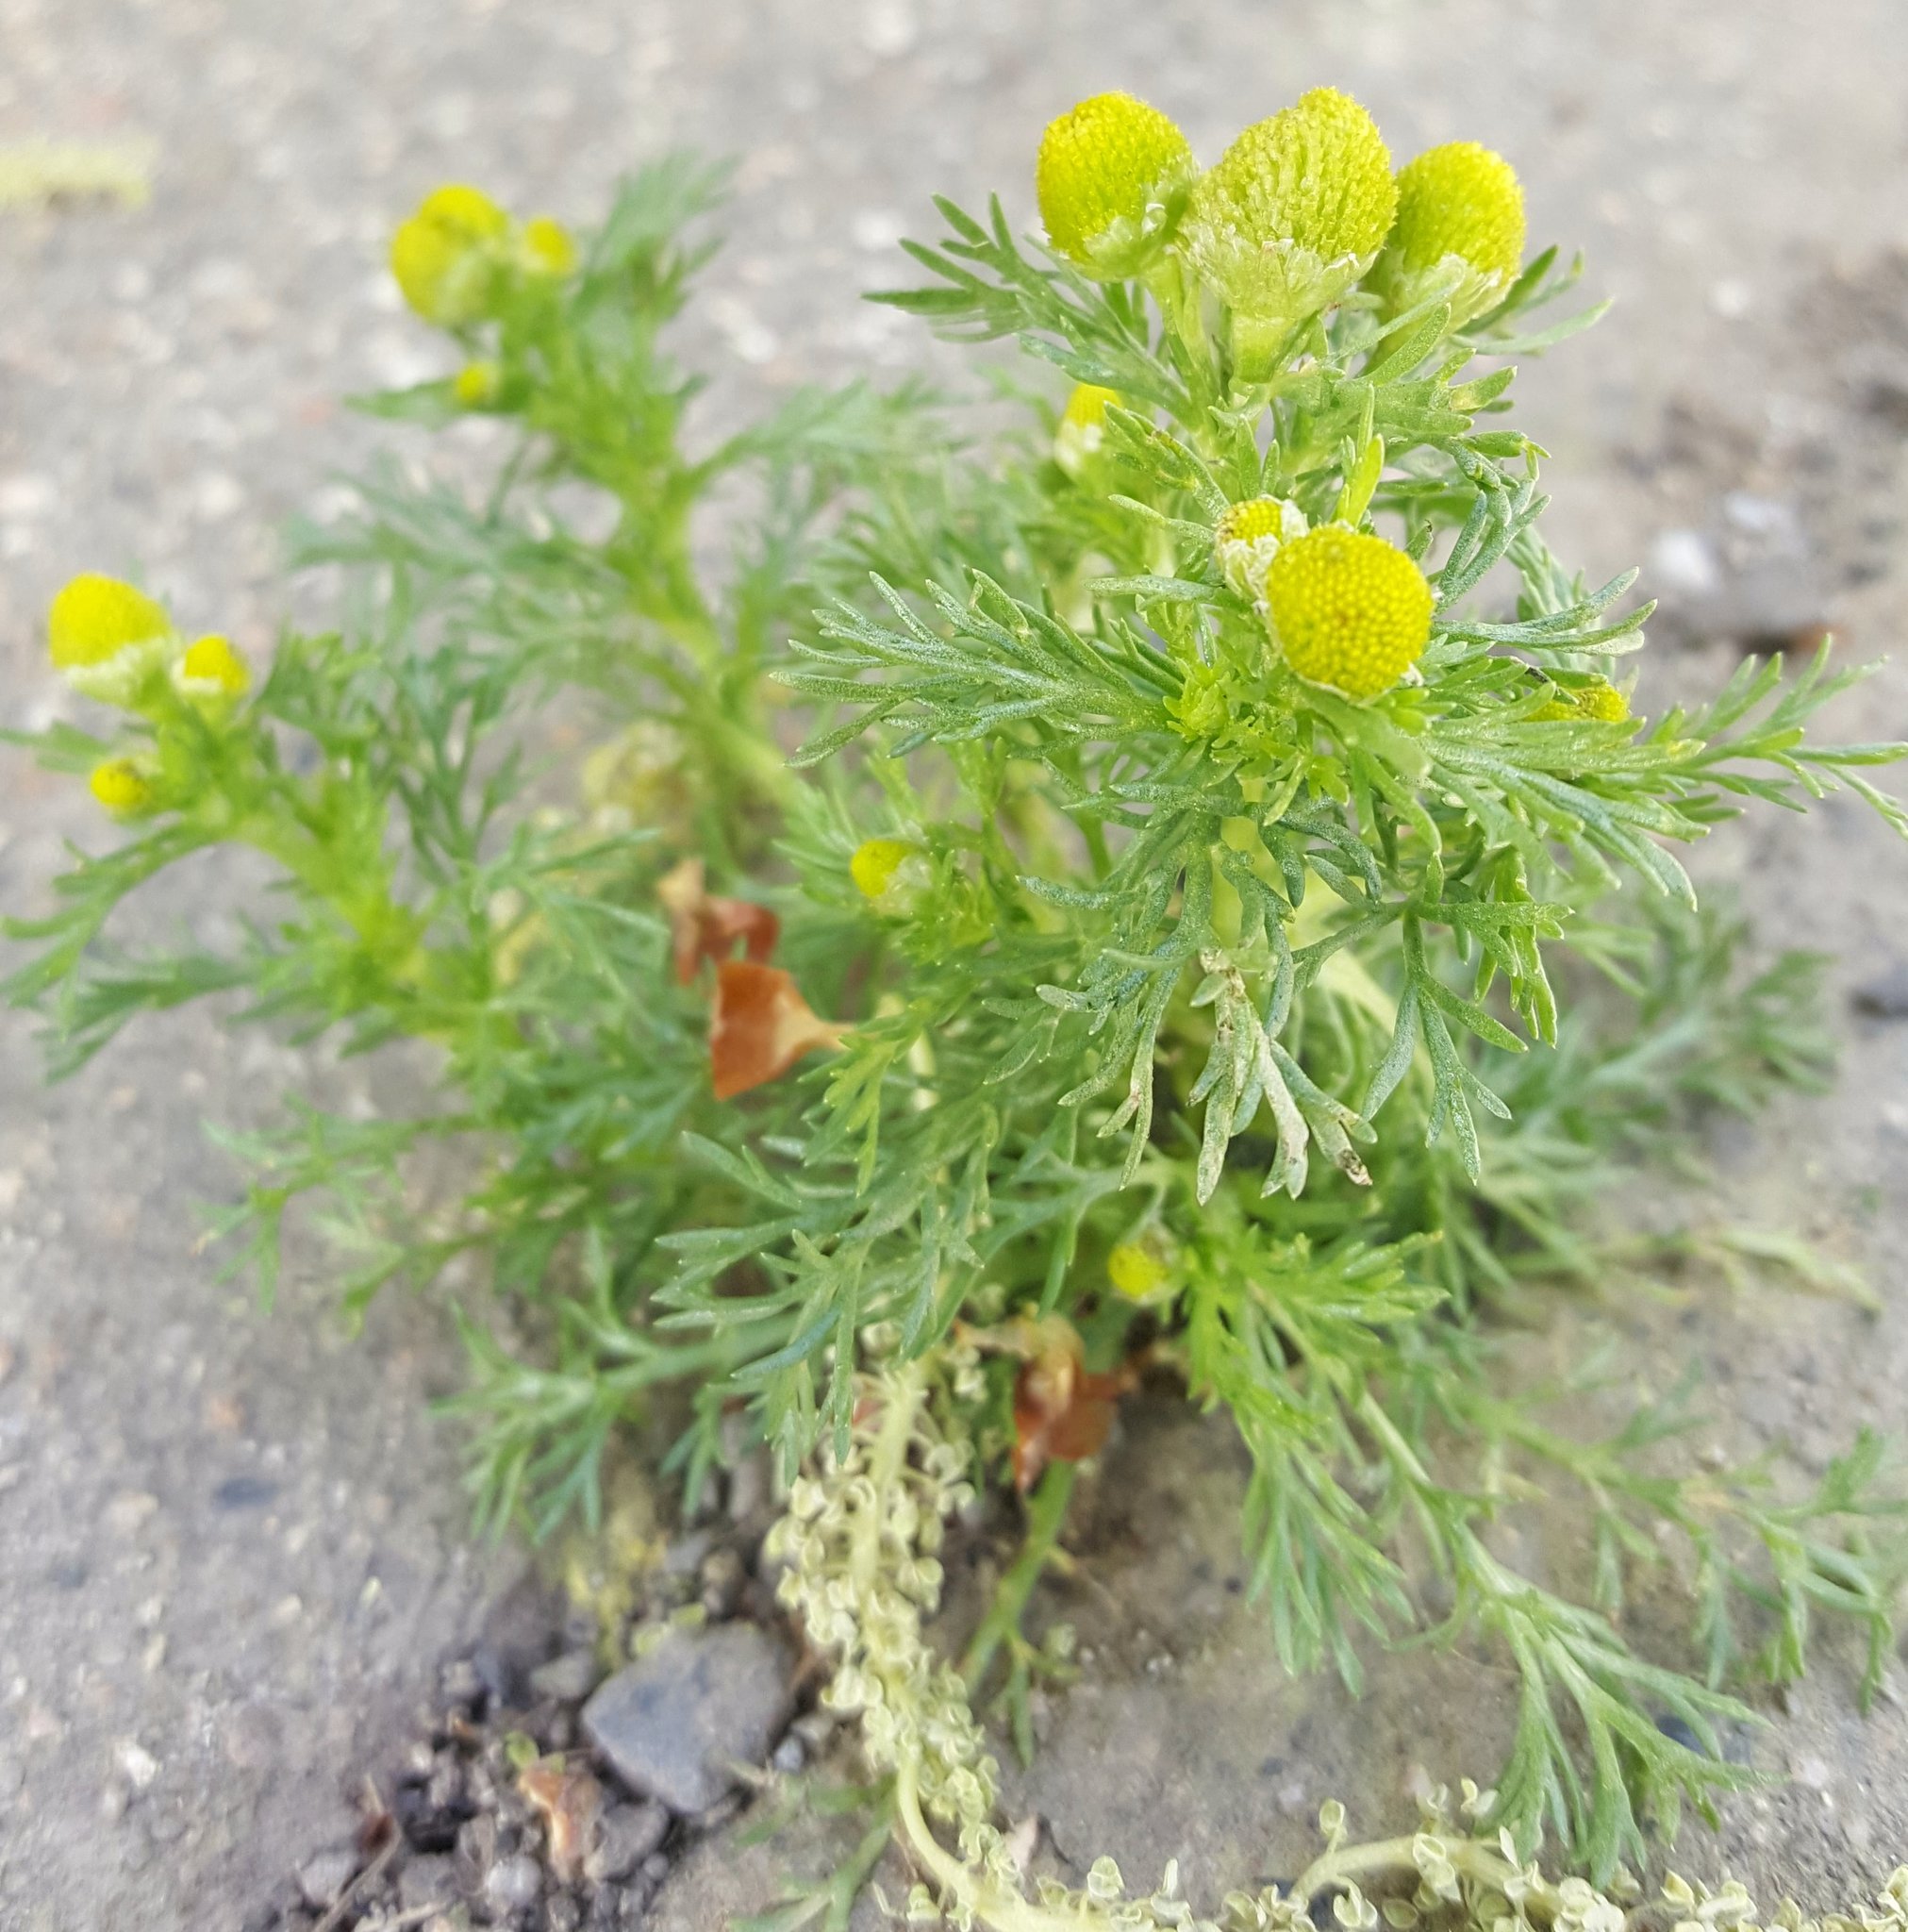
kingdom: Plantae
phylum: Tracheophyta
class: Magnoliopsida
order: Asterales
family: Asteraceae
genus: Matricaria
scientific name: Matricaria discoidea
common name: Disc mayweed
